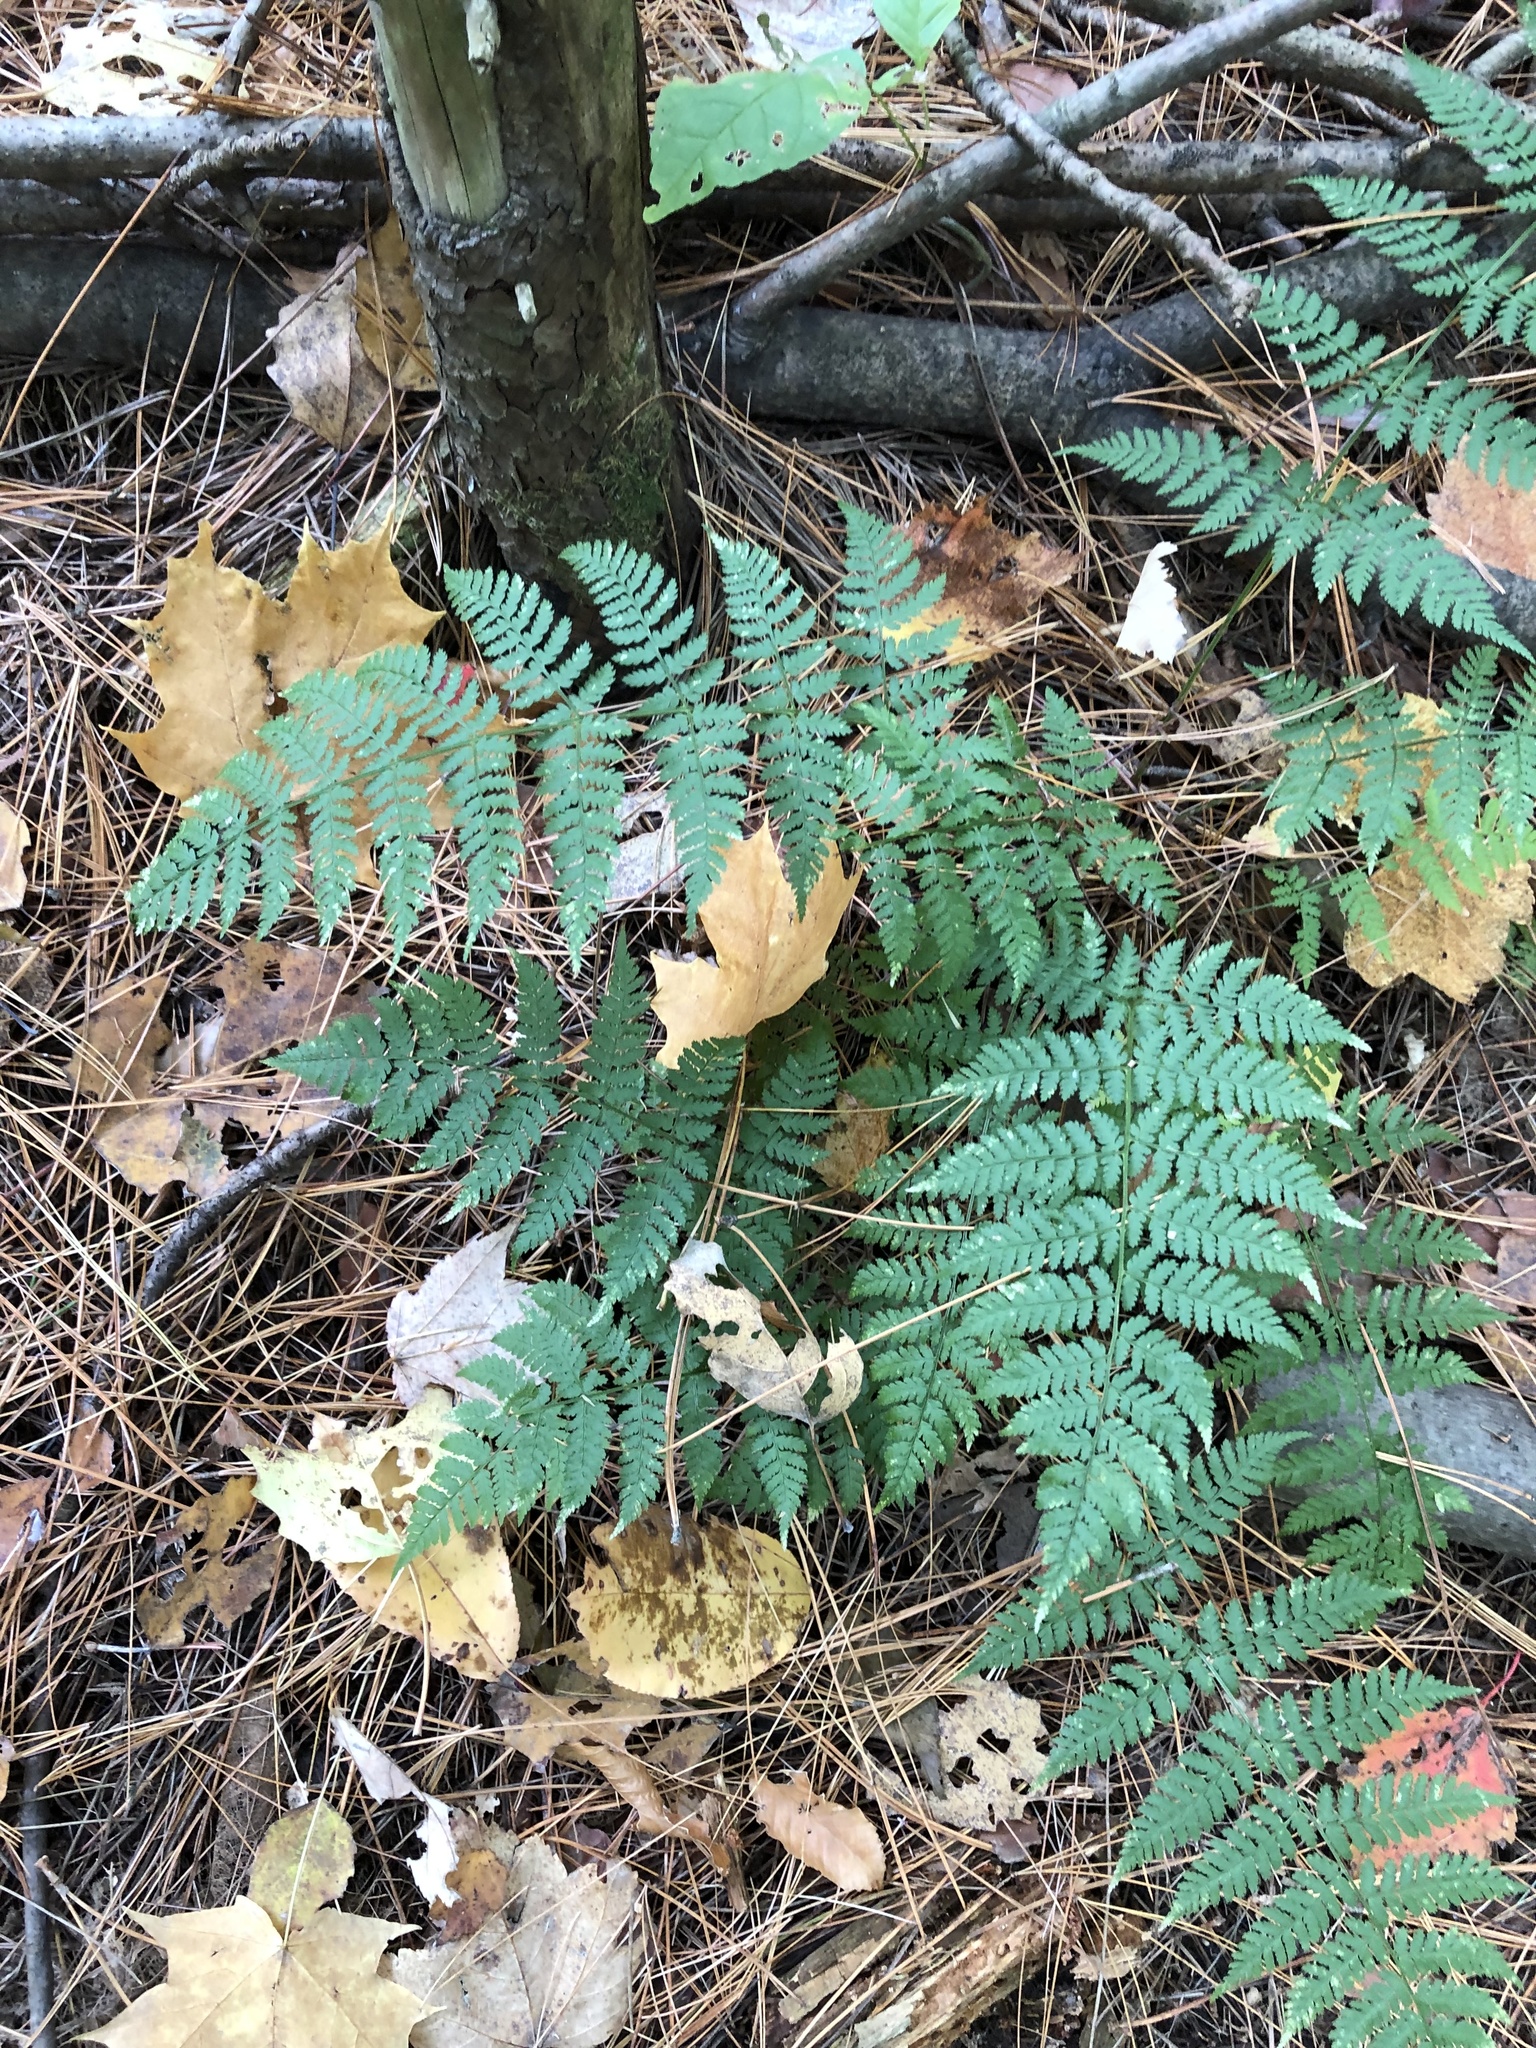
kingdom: Plantae
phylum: Tracheophyta
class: Polypodiopsida
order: Polypodiales
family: Dryopteridaceae
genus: Dryopteris
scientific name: Dryopteris intermedia
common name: Evergreen wood fern
